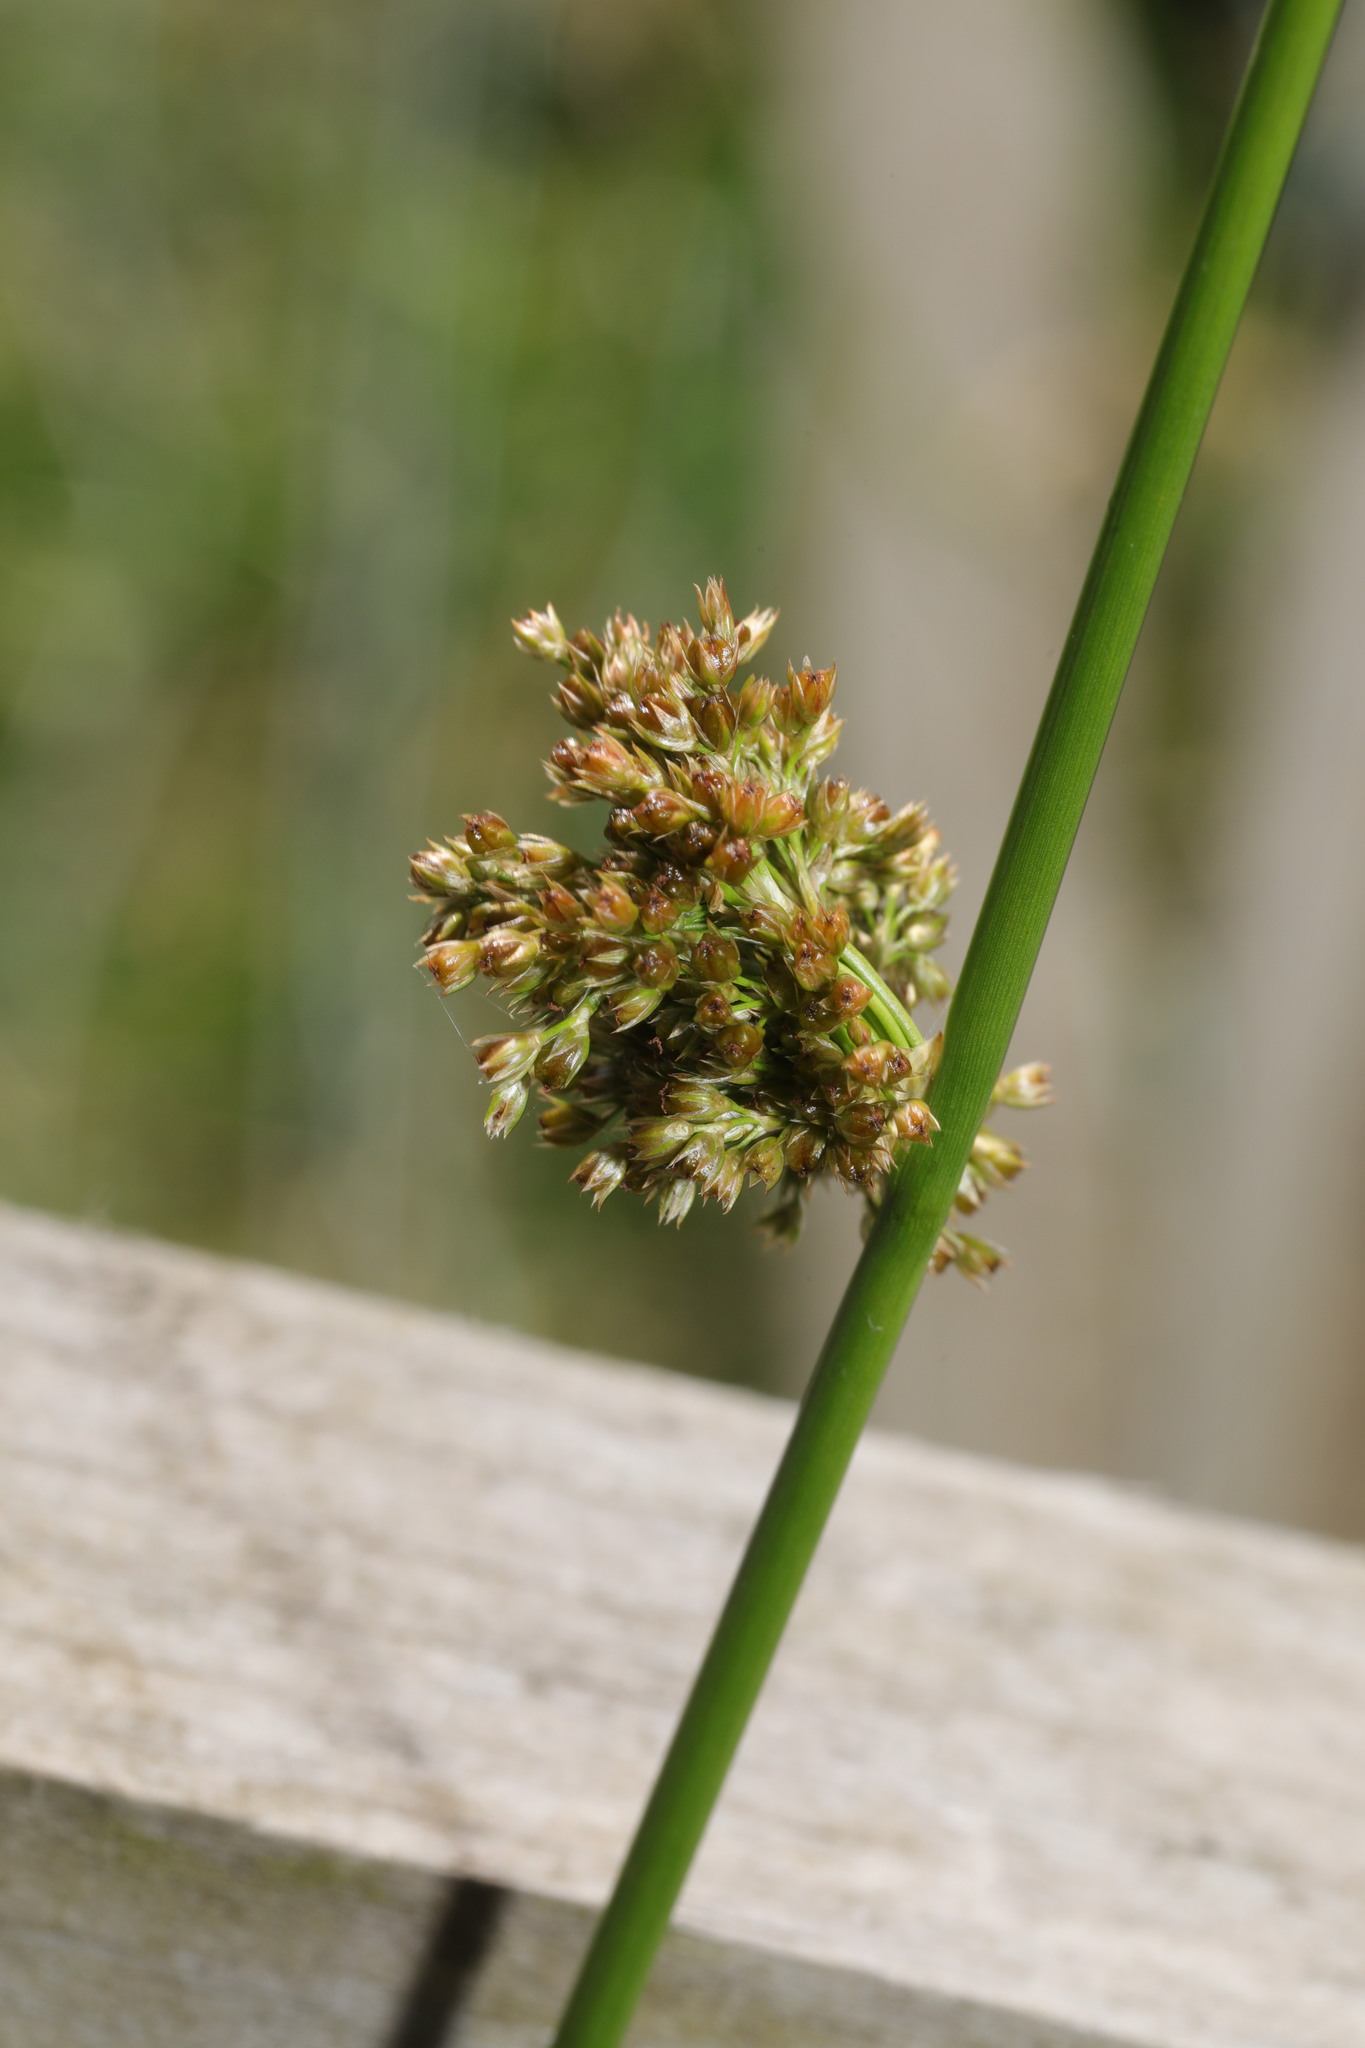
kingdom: Plantae
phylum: Tracheophyta
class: Liliopsida
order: Poales
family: Juncaceae
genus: Juncus
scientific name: Juncus effusus
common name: Soft rush
